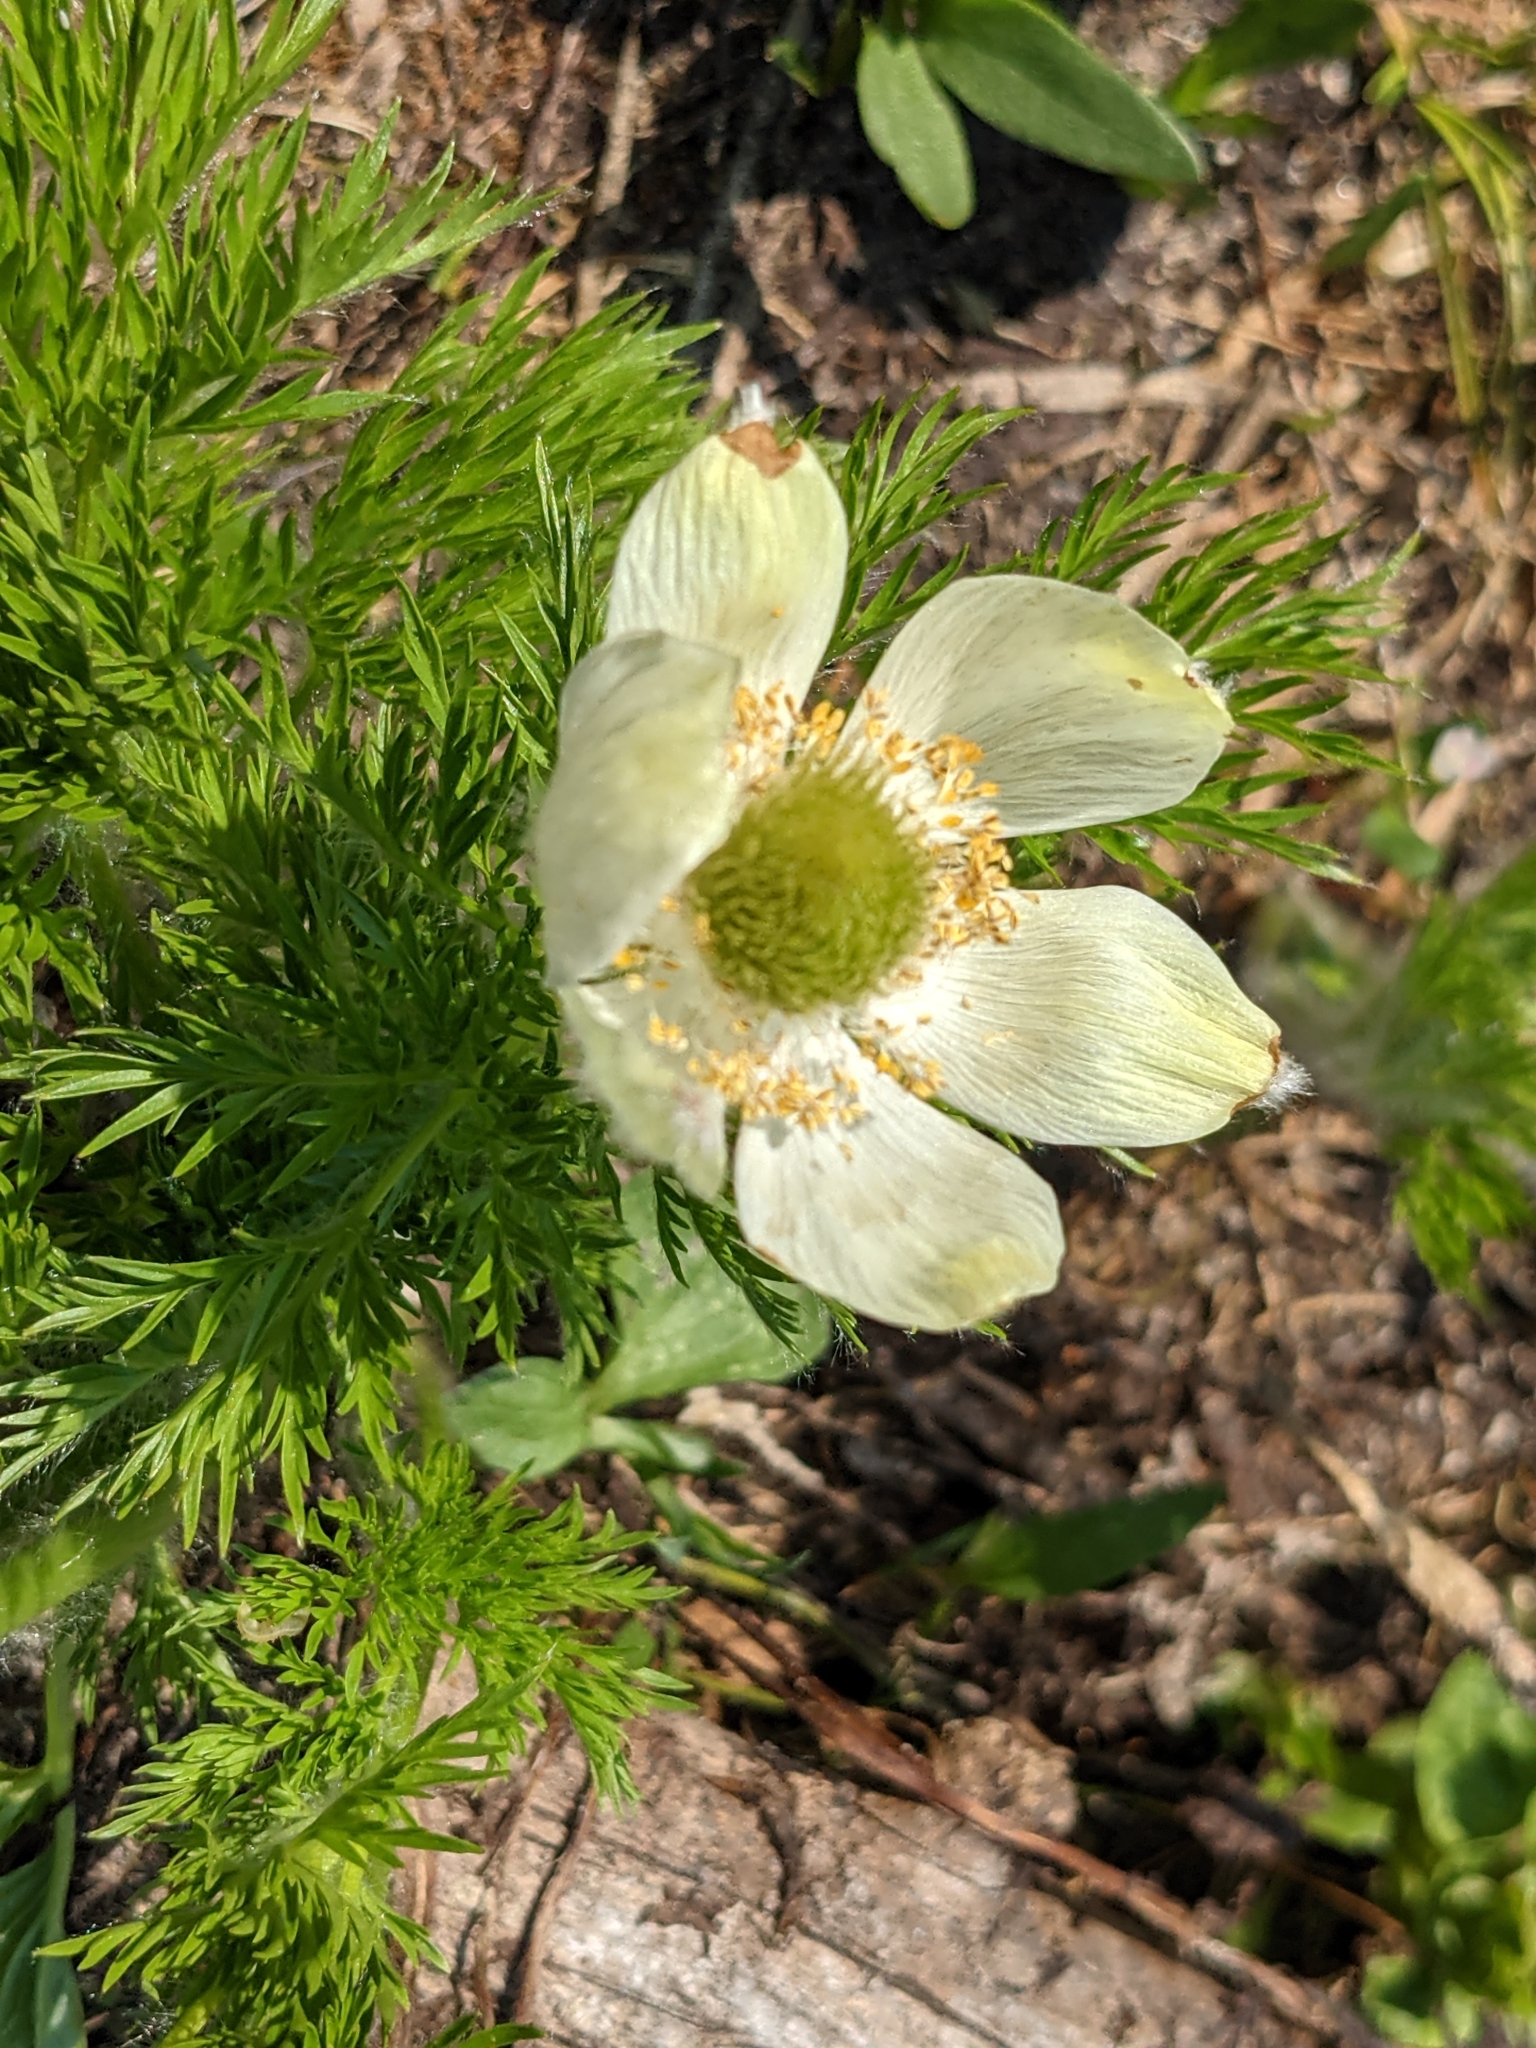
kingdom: Plantae
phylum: Tracheophyta
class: Magnoliopsida
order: Ranunculales
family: Ranunculaceae
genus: Pulsatilla
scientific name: Pulsatilla occidentalis
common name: Mountain pasqueflower
